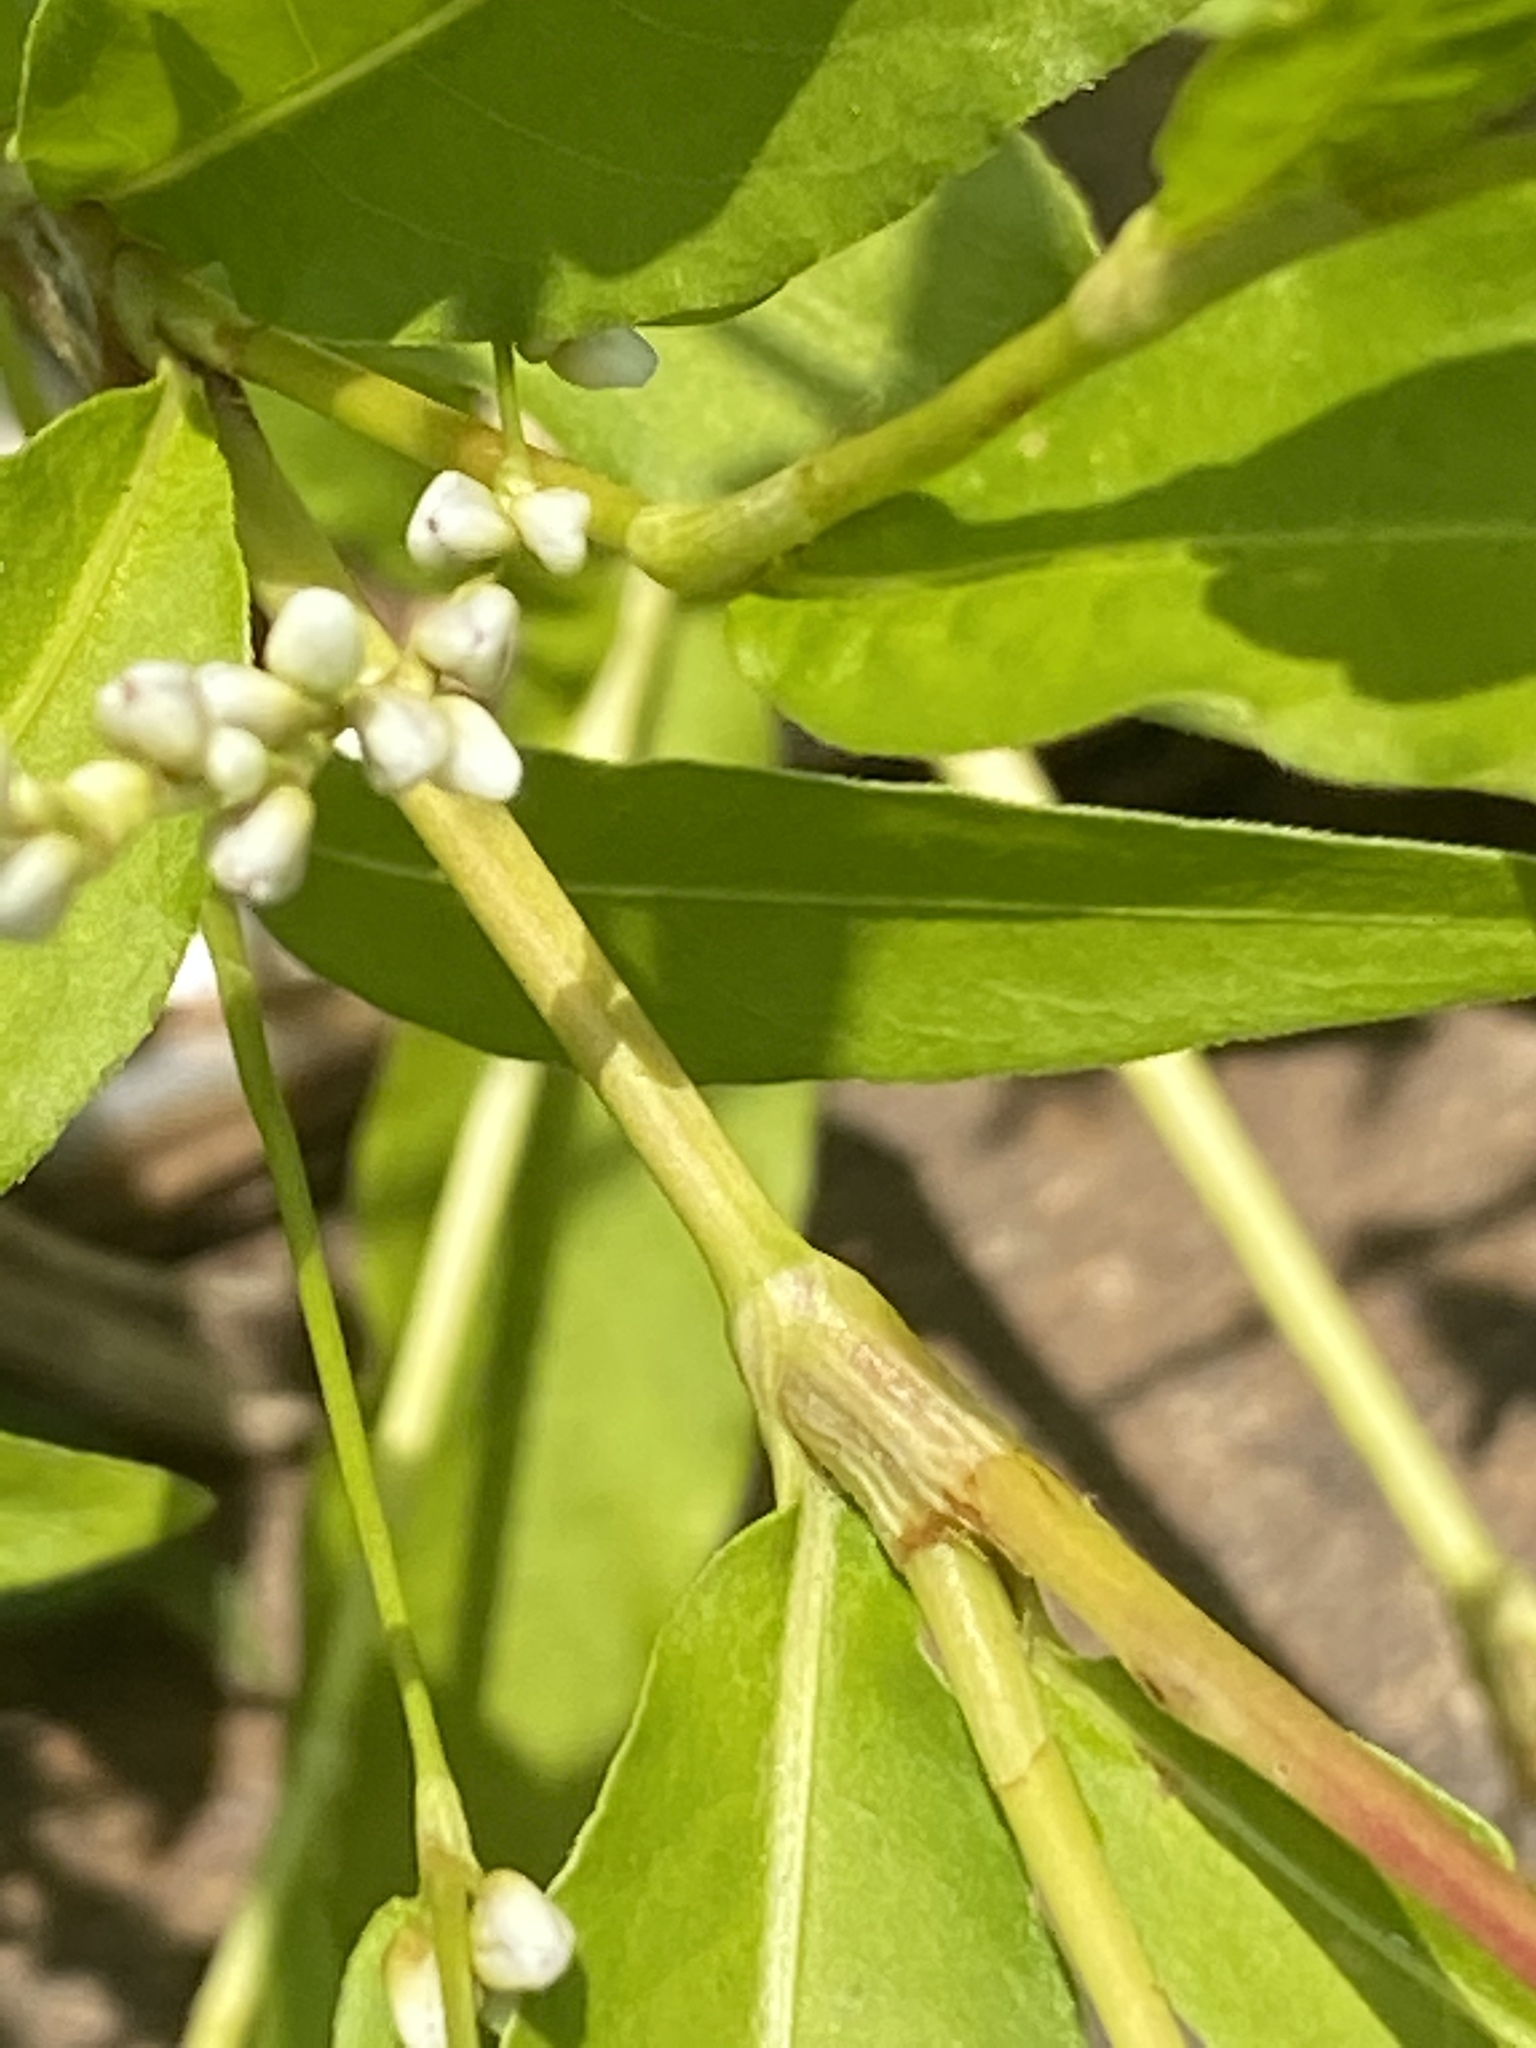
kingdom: Plantae
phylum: Tracheophyta
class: Magnoliopsida
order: Caryophyllales
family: Polygonaceae
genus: Persicaria
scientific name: Persicaria punctata
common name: Dotted smartweed
